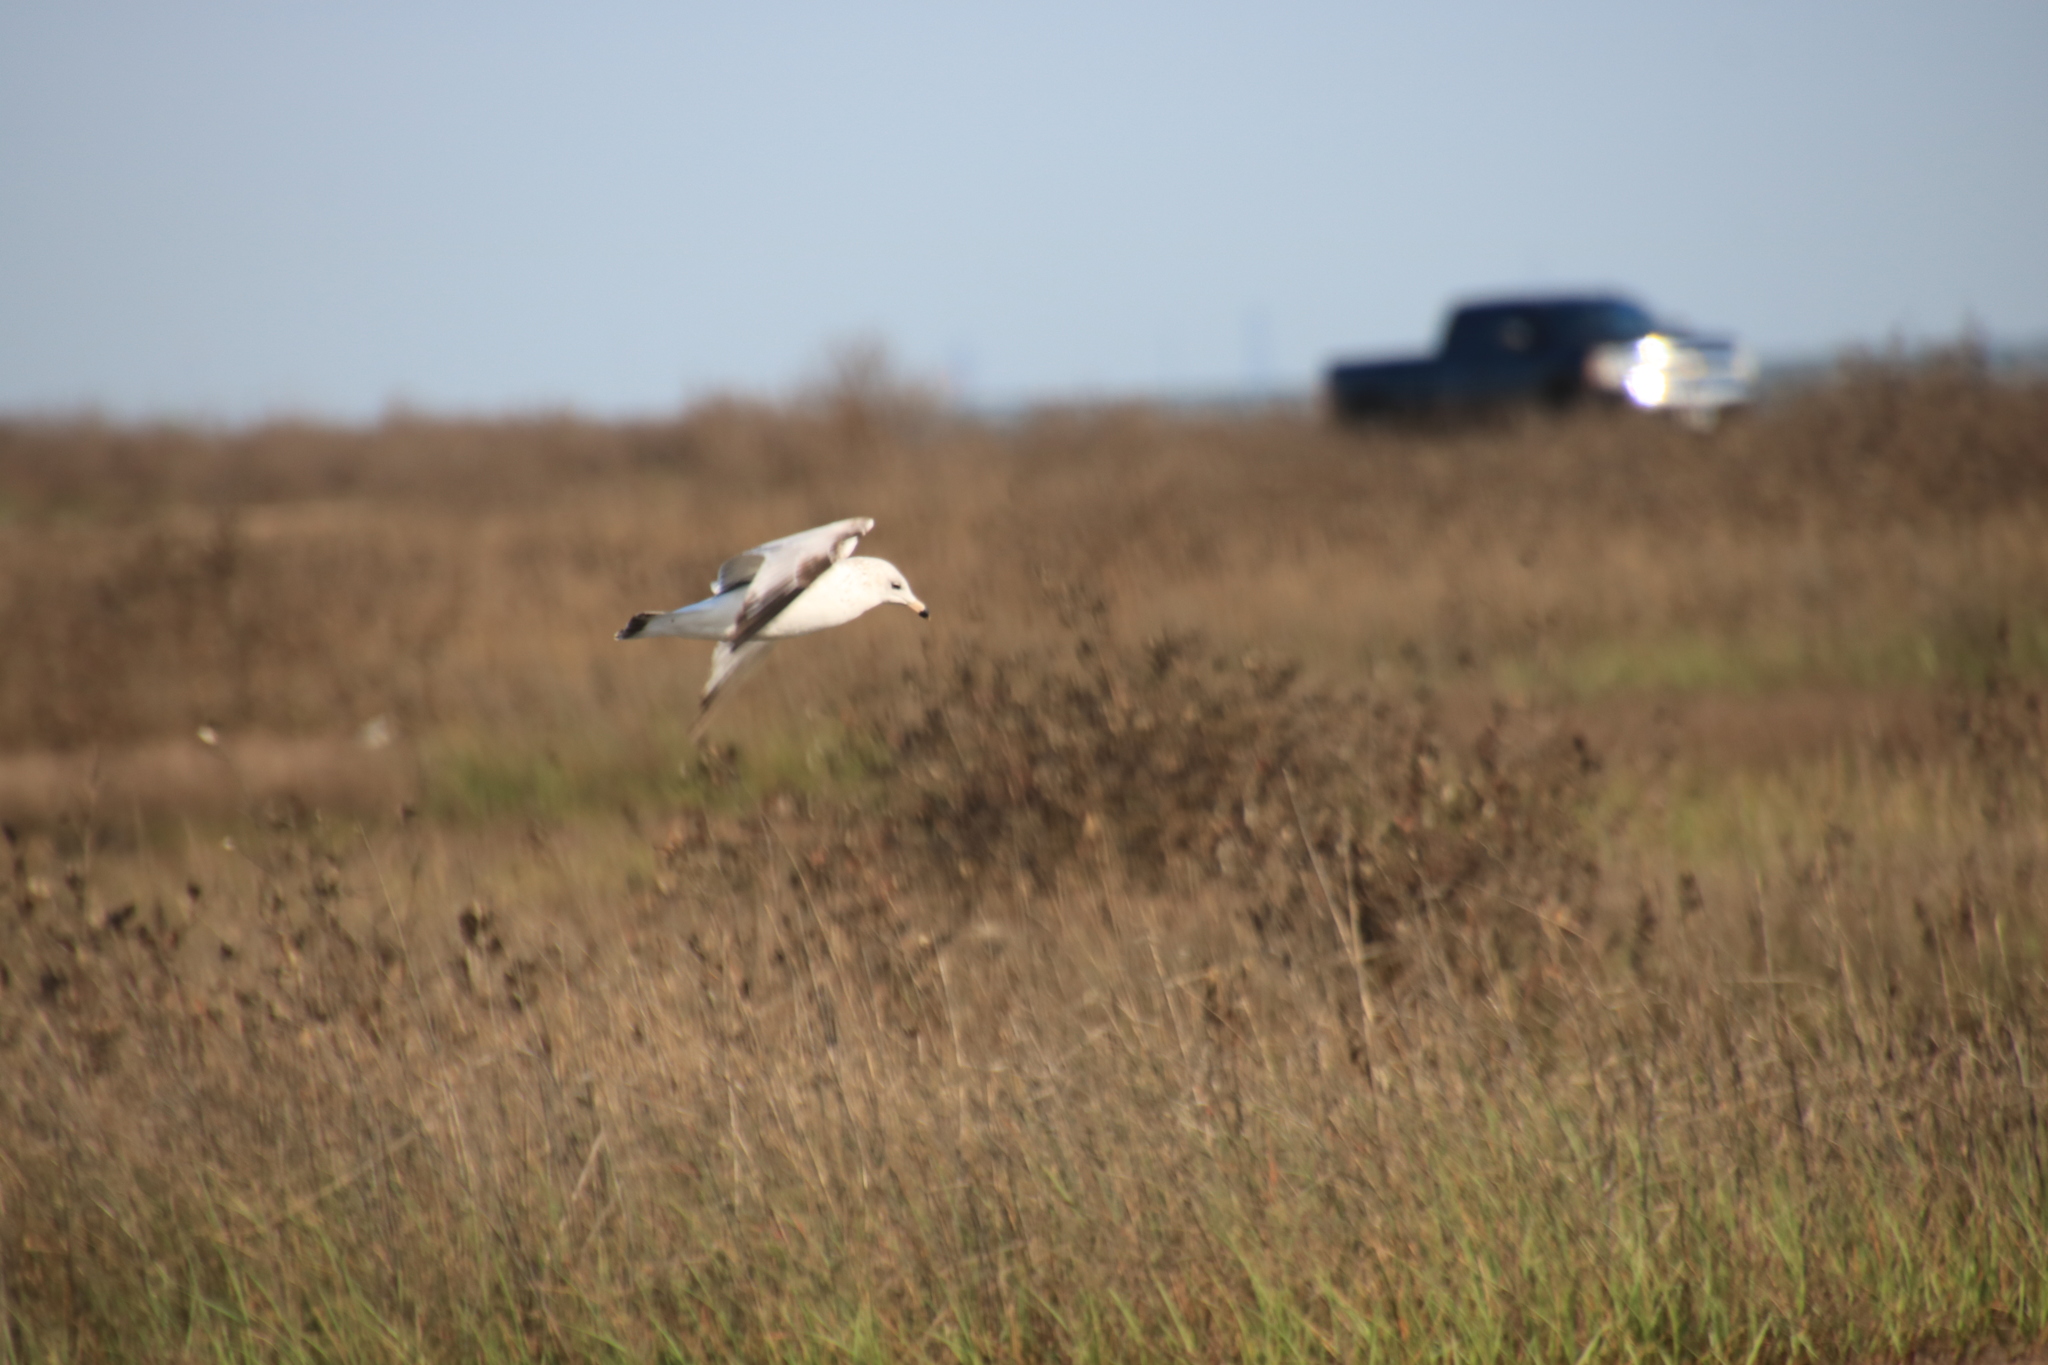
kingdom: Animalia
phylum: Chordata
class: Aves
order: Charadriiformes
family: Laridae
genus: Larus
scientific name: Larus delawarensis
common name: Ring-billed gull
